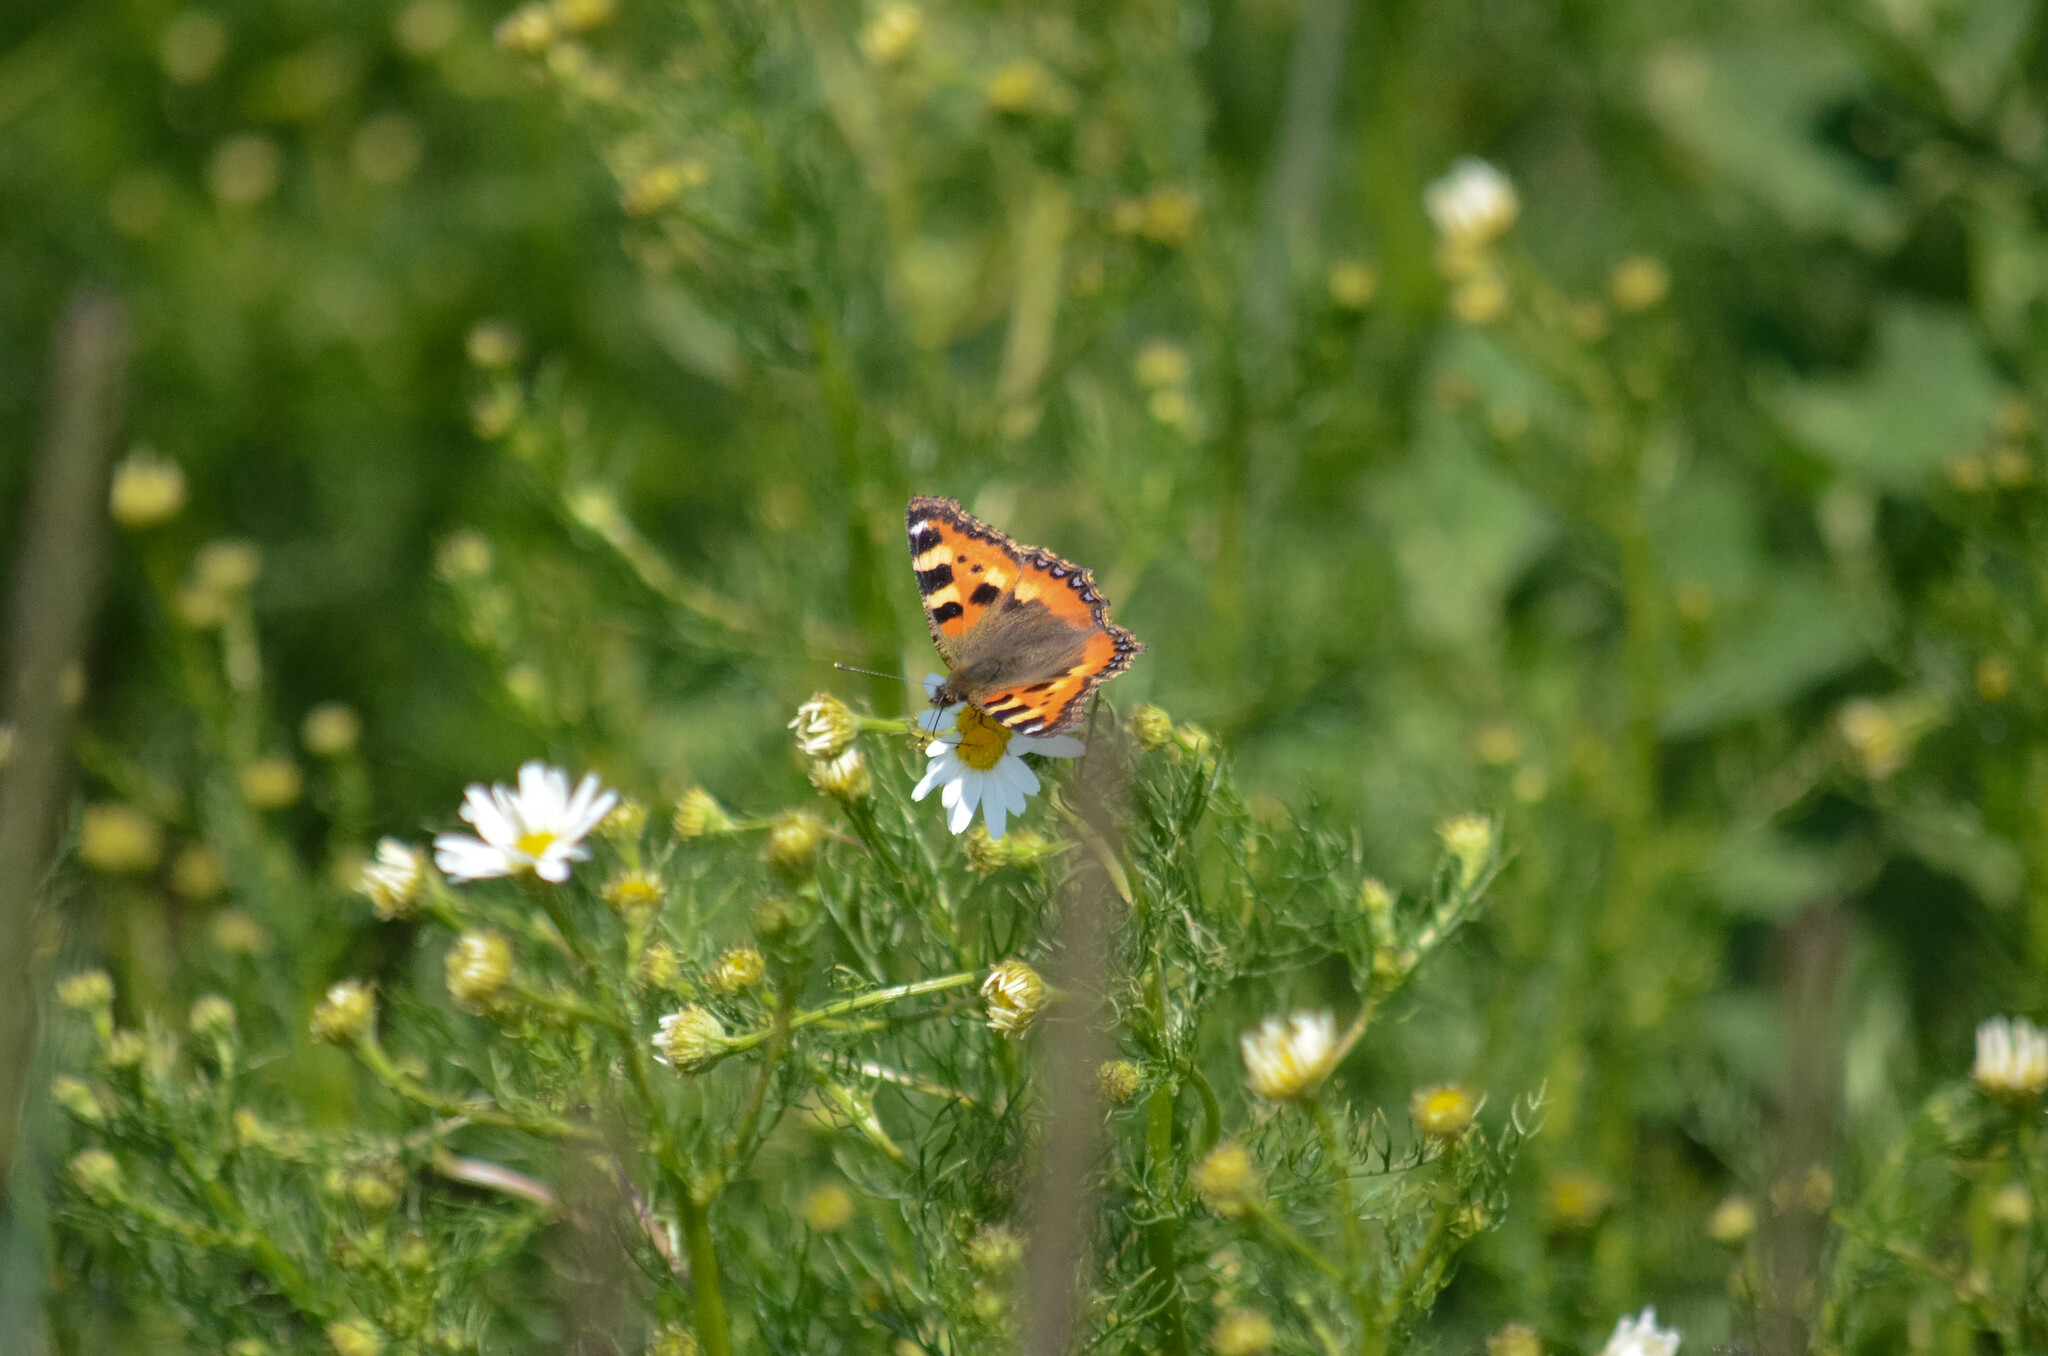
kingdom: Animalia
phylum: Arthropoda
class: Insecta
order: Lepidoptera
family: Nymphalidae
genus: Aglais
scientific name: Aglais urticae
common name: Small tortoiseshell
